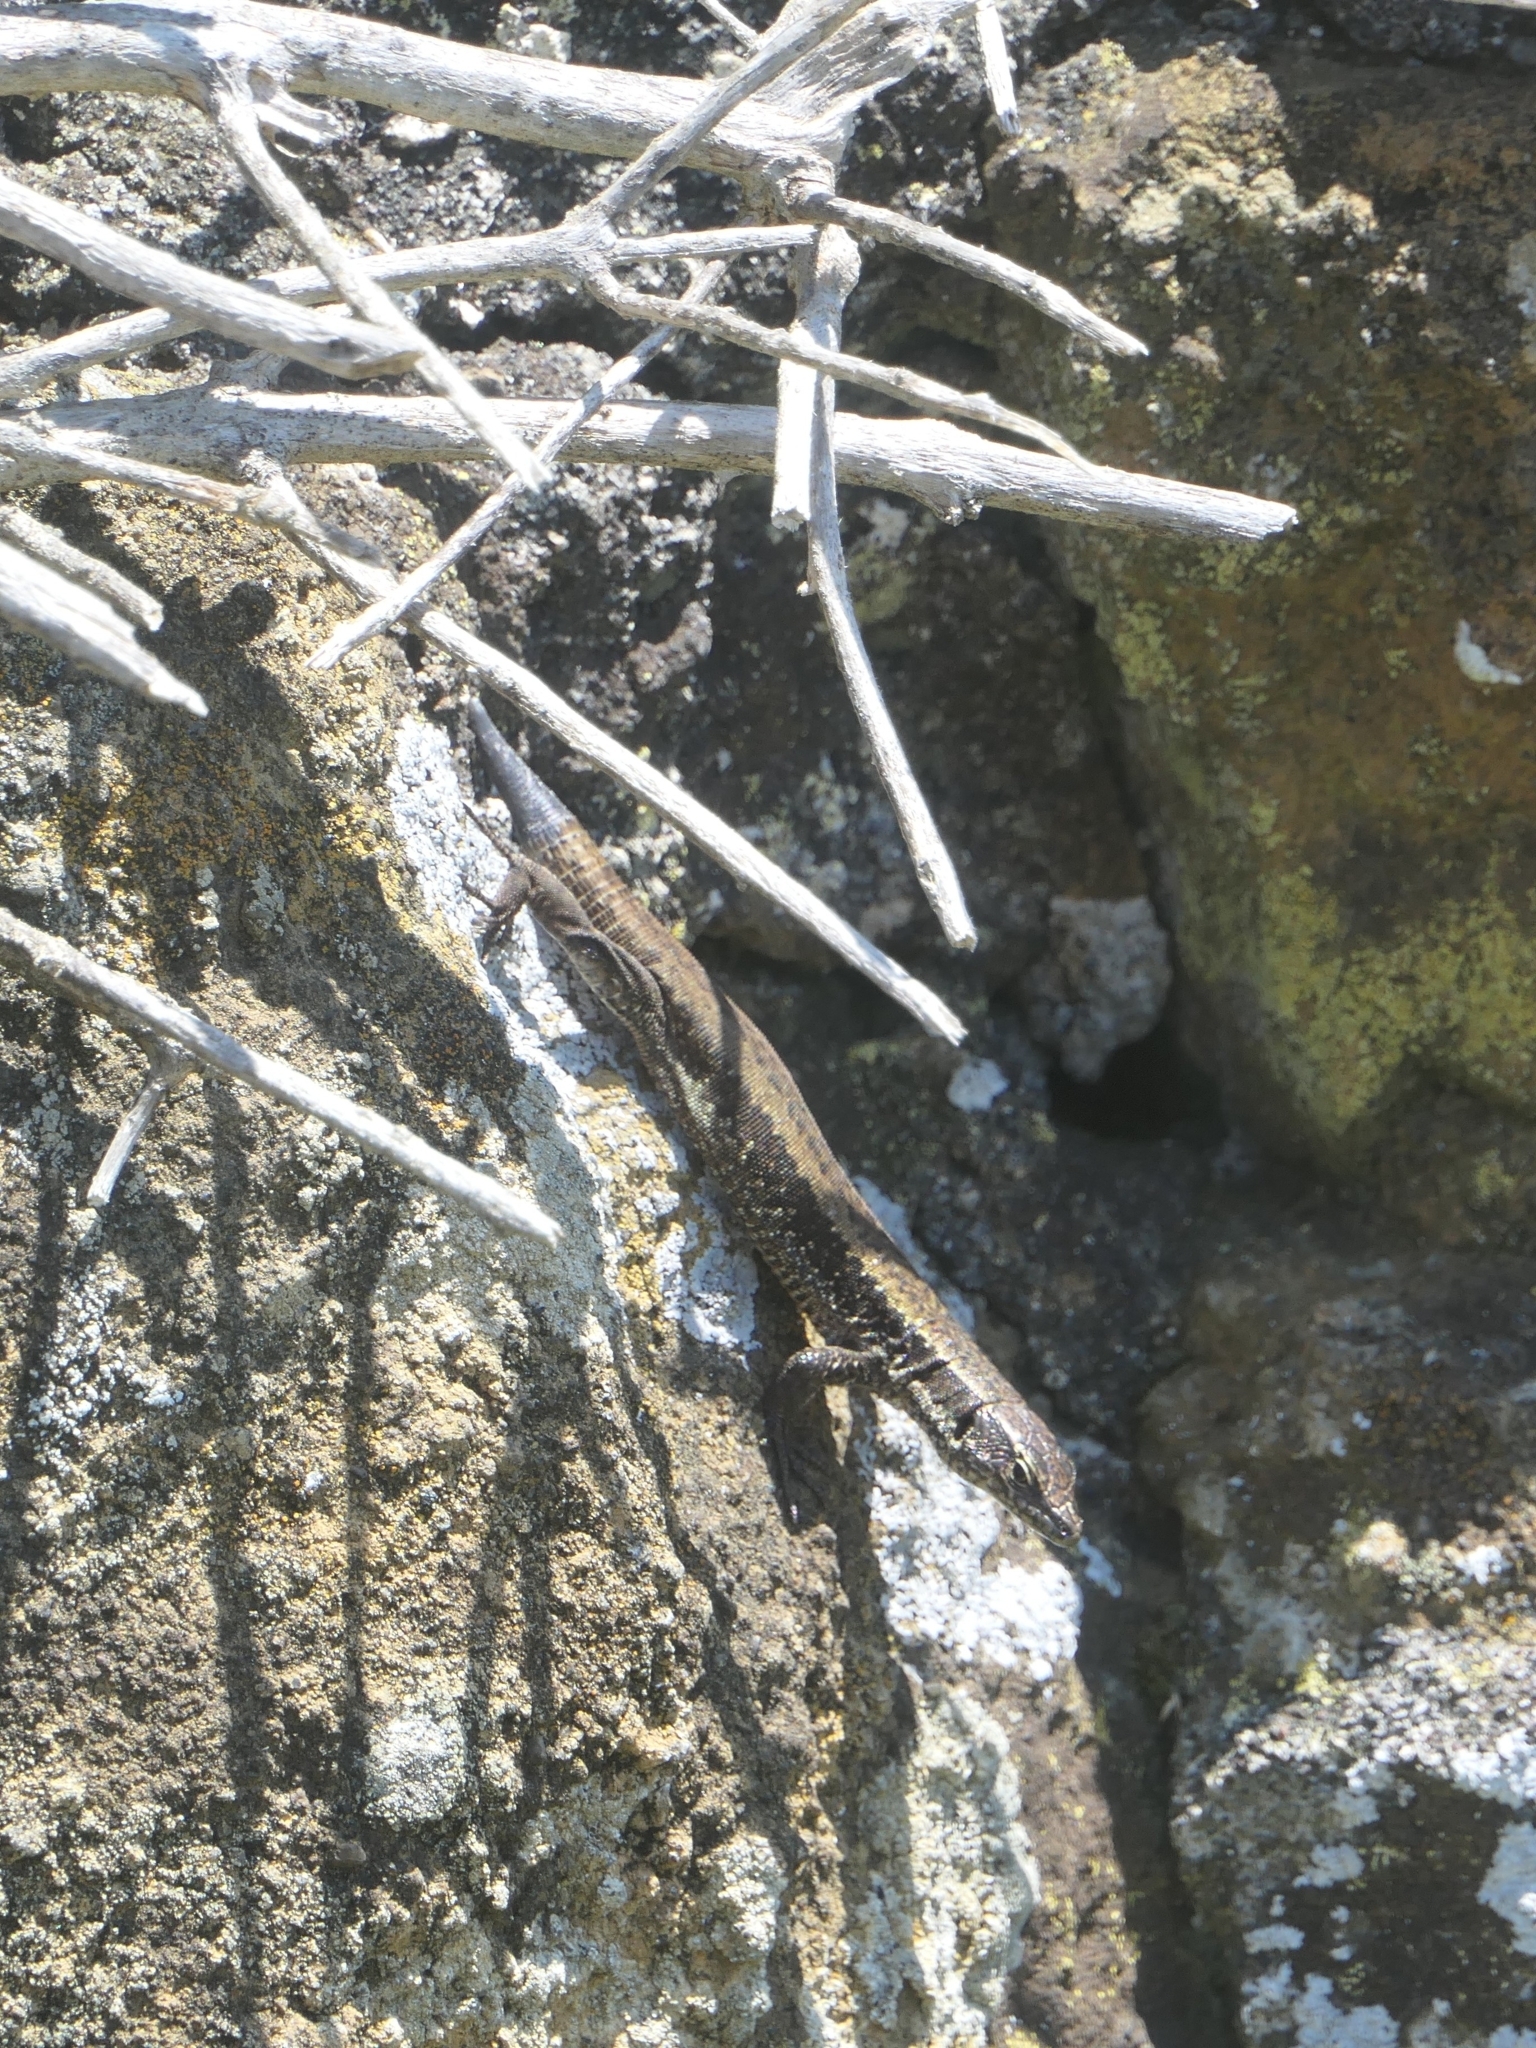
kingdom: Animalia
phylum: Chordata
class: Squamata
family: Lacertidae
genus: Teira
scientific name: Teira dugesii
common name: Madeira lizard
